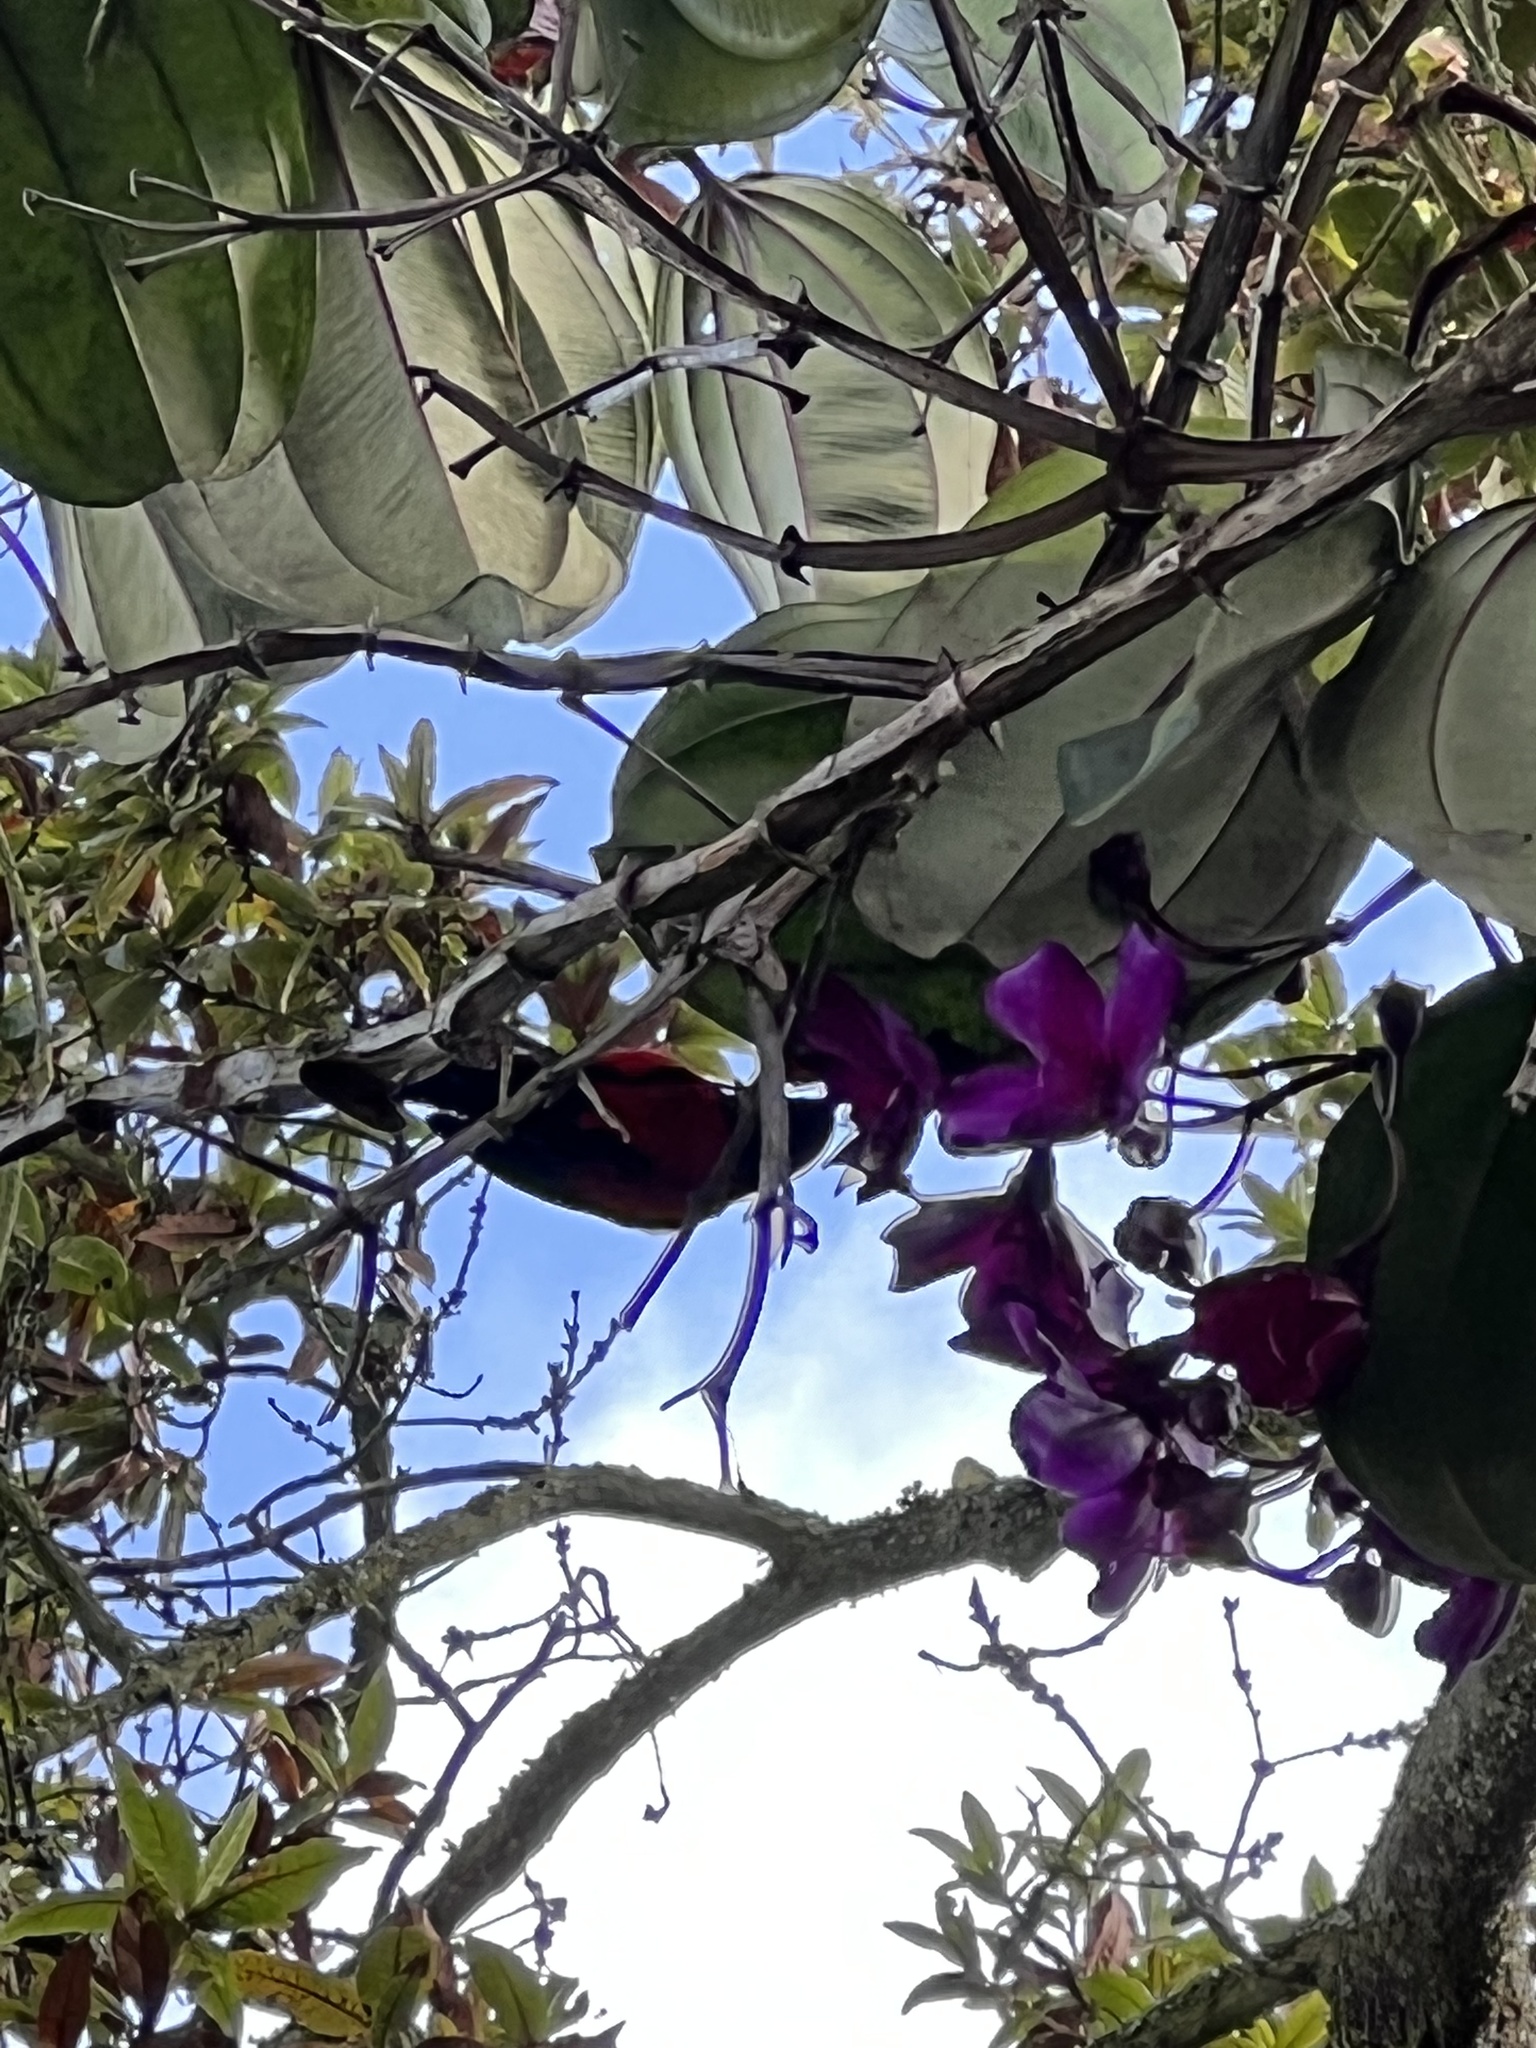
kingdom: Animalia
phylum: Chordata
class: Aves
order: Passeriformes
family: Thraupidae
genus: Anisognathus
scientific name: Anisognathus igniventris
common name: Scarlet-bellied mountain tanager
